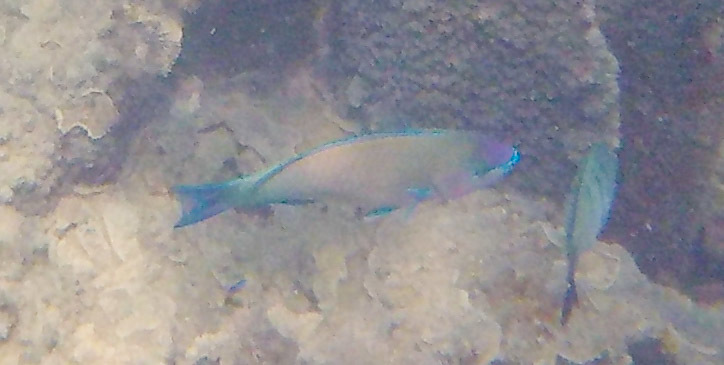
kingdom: Animalia
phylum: Chordata
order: Perciformes
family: Scaridae
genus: Scarus
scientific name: Scarus psittacus
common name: Palenose parrotfish
